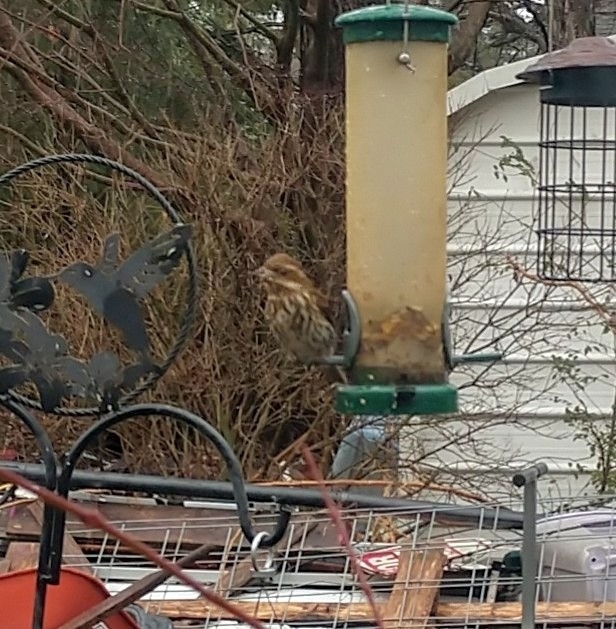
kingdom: Animalia
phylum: Chordata
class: Aves
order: Passeriformes
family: Fringillidae
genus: Haemorhous
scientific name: Haemorhous purpureus
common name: Purple finch
